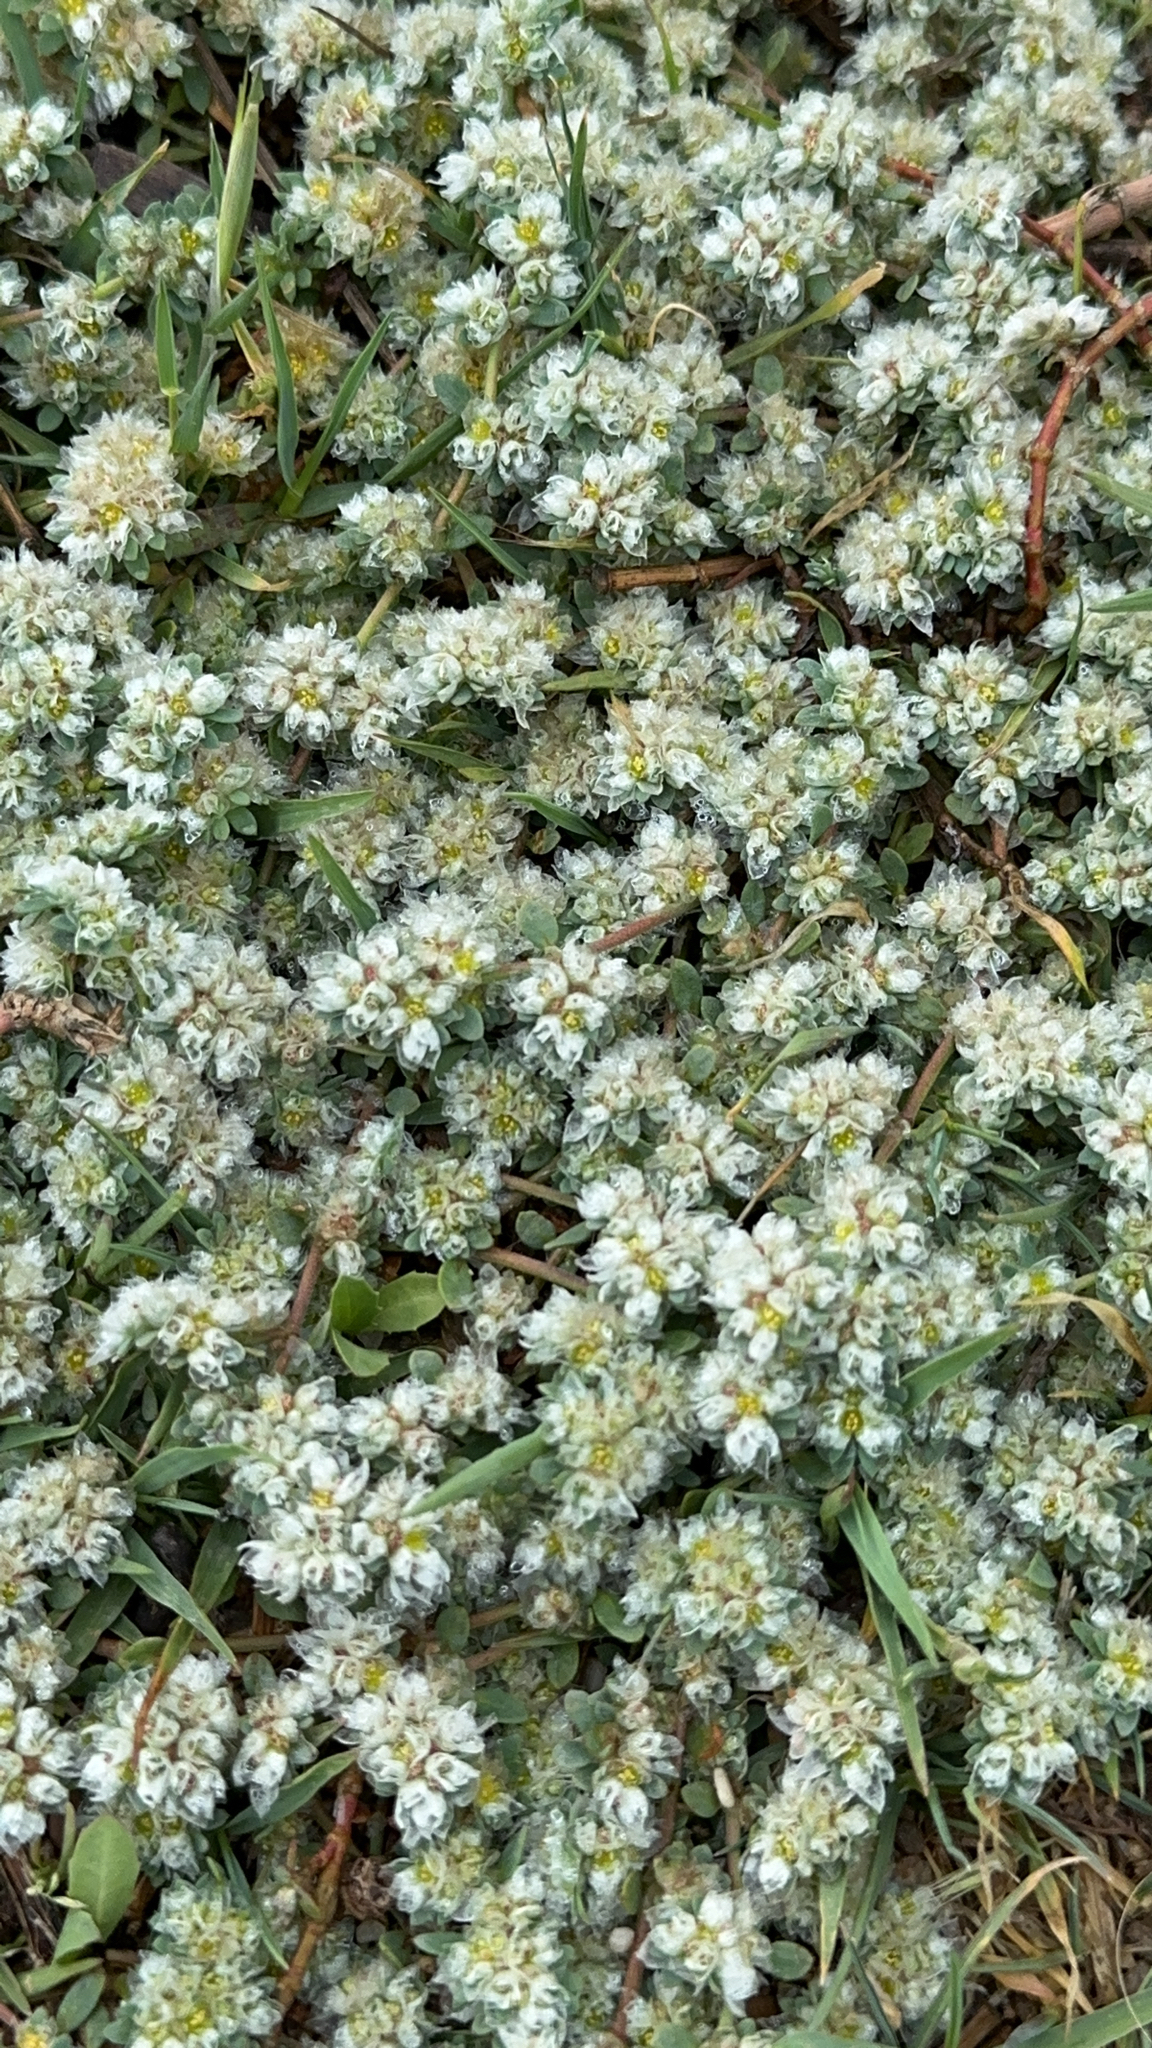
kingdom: Plantae
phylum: Tracheophyta
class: Magnoliopsida
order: Caryophyllales
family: Caryophyllaceae
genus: Paronychia
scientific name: Paronychia argentea
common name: Silver nailroot
